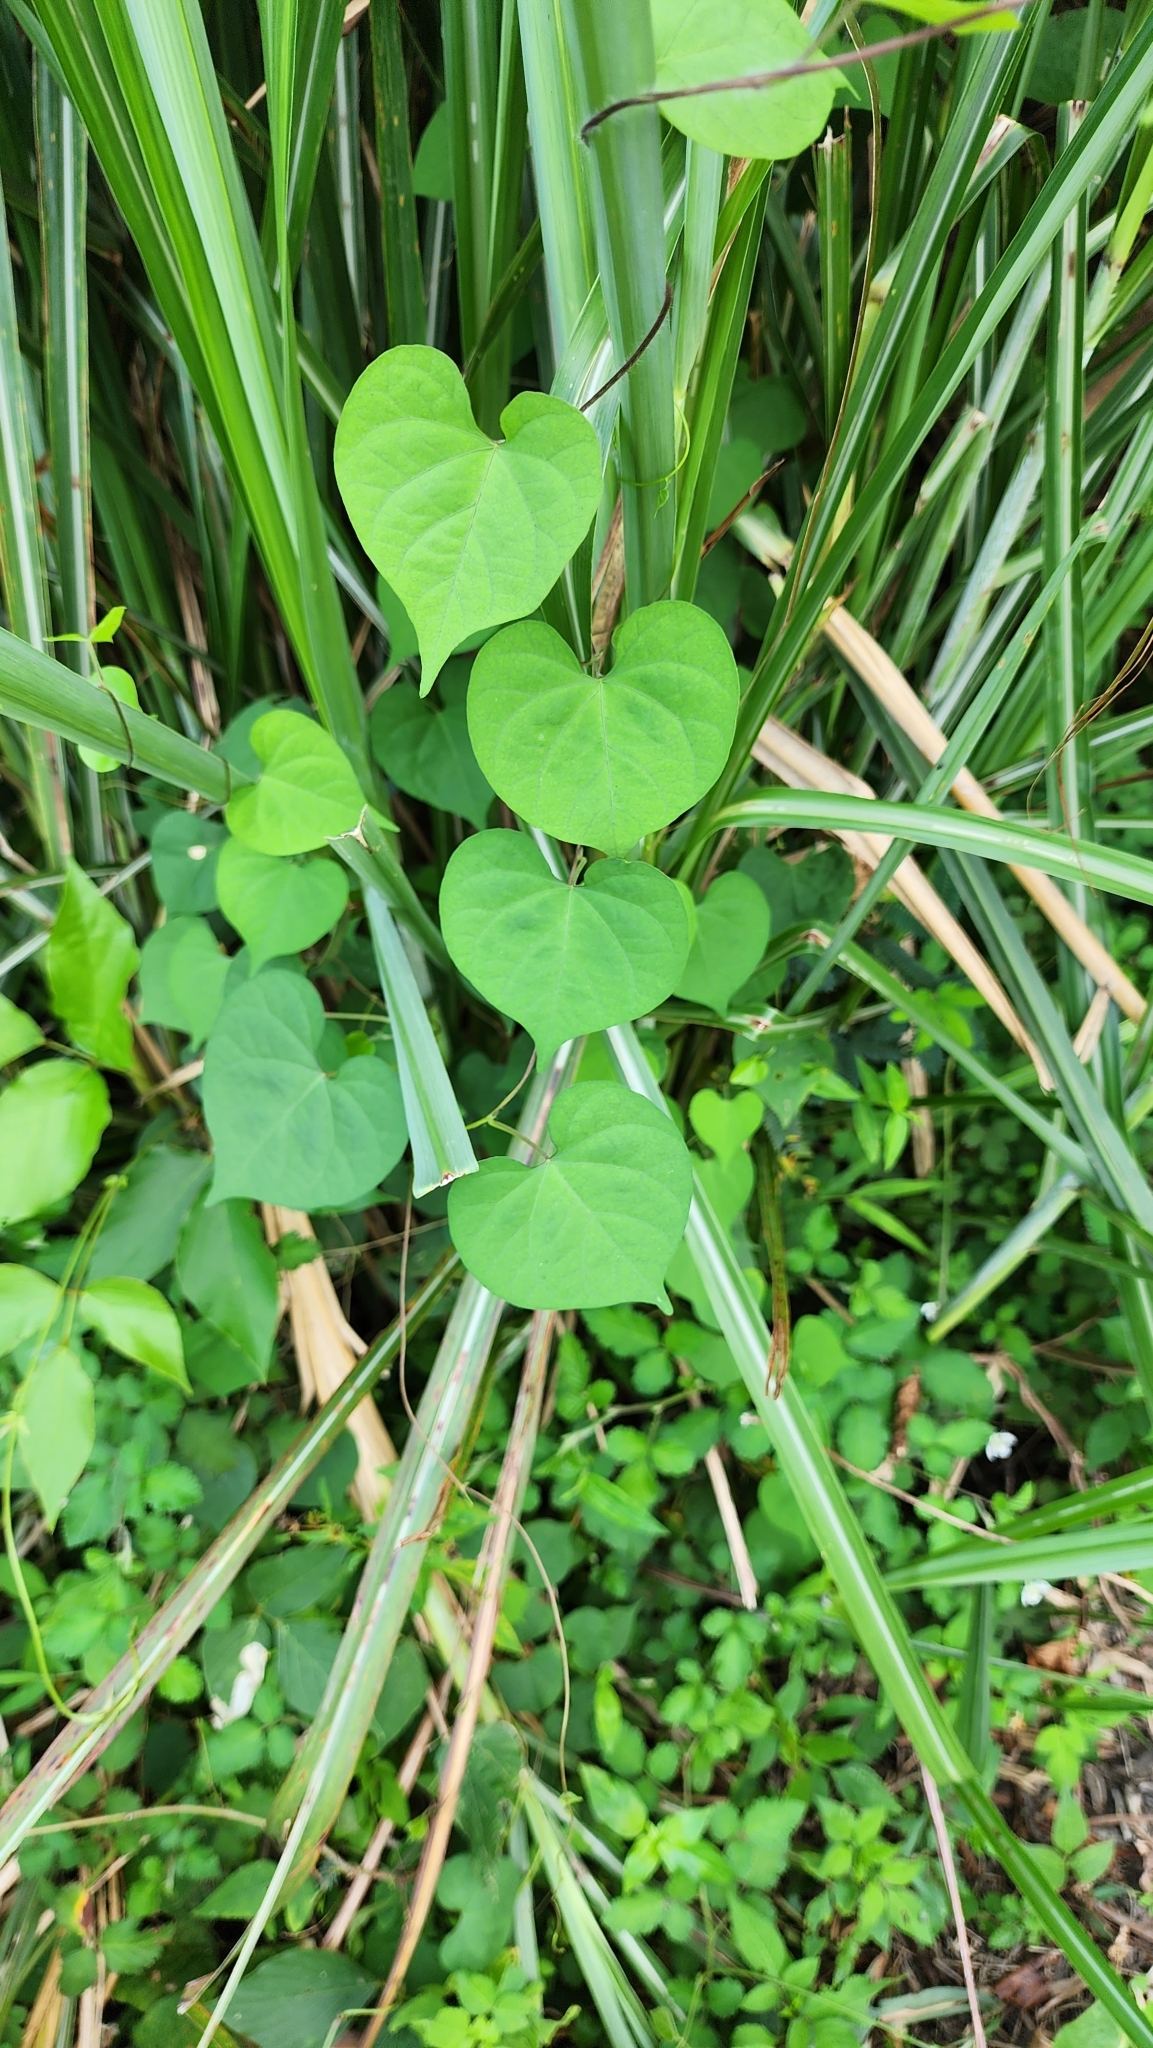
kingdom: Plantae
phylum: Tracheophyta
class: Magnoliopsida
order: Solanales
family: Convolvulaceae
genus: Ipomoea
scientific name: Ipomoea obscura
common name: Obscure morning-glory
